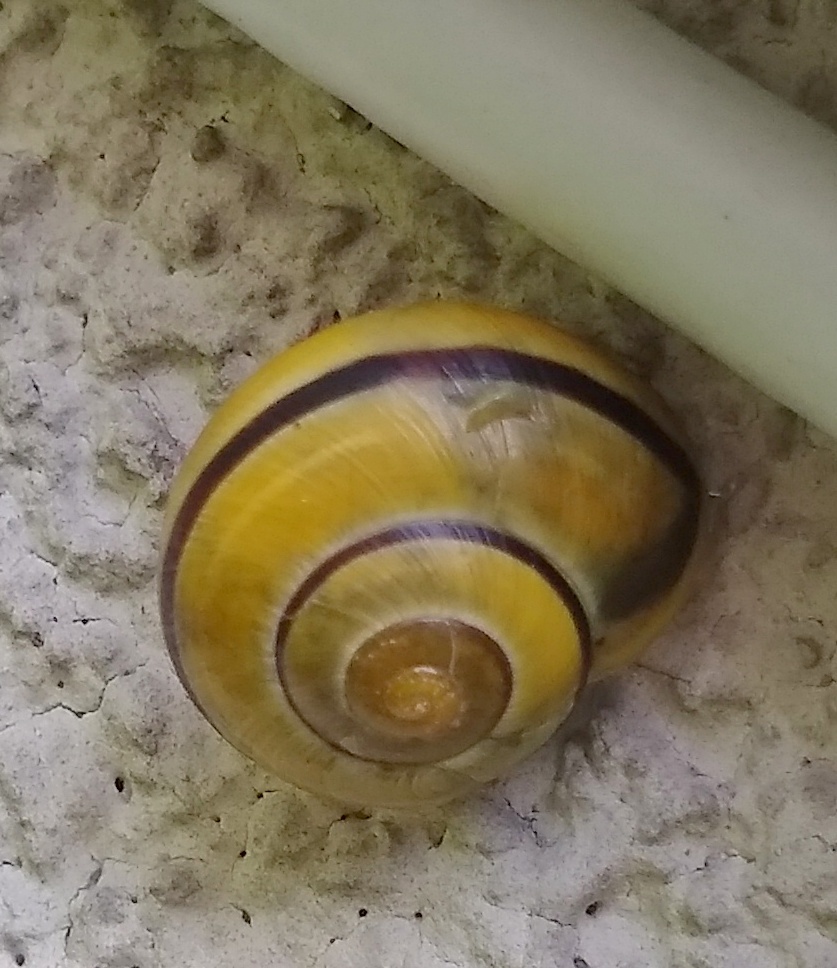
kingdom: Animalia
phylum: Mollusca
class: Gastropoda
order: Stylommatophora
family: Helicidae
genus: Cepaea
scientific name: Cepaea
